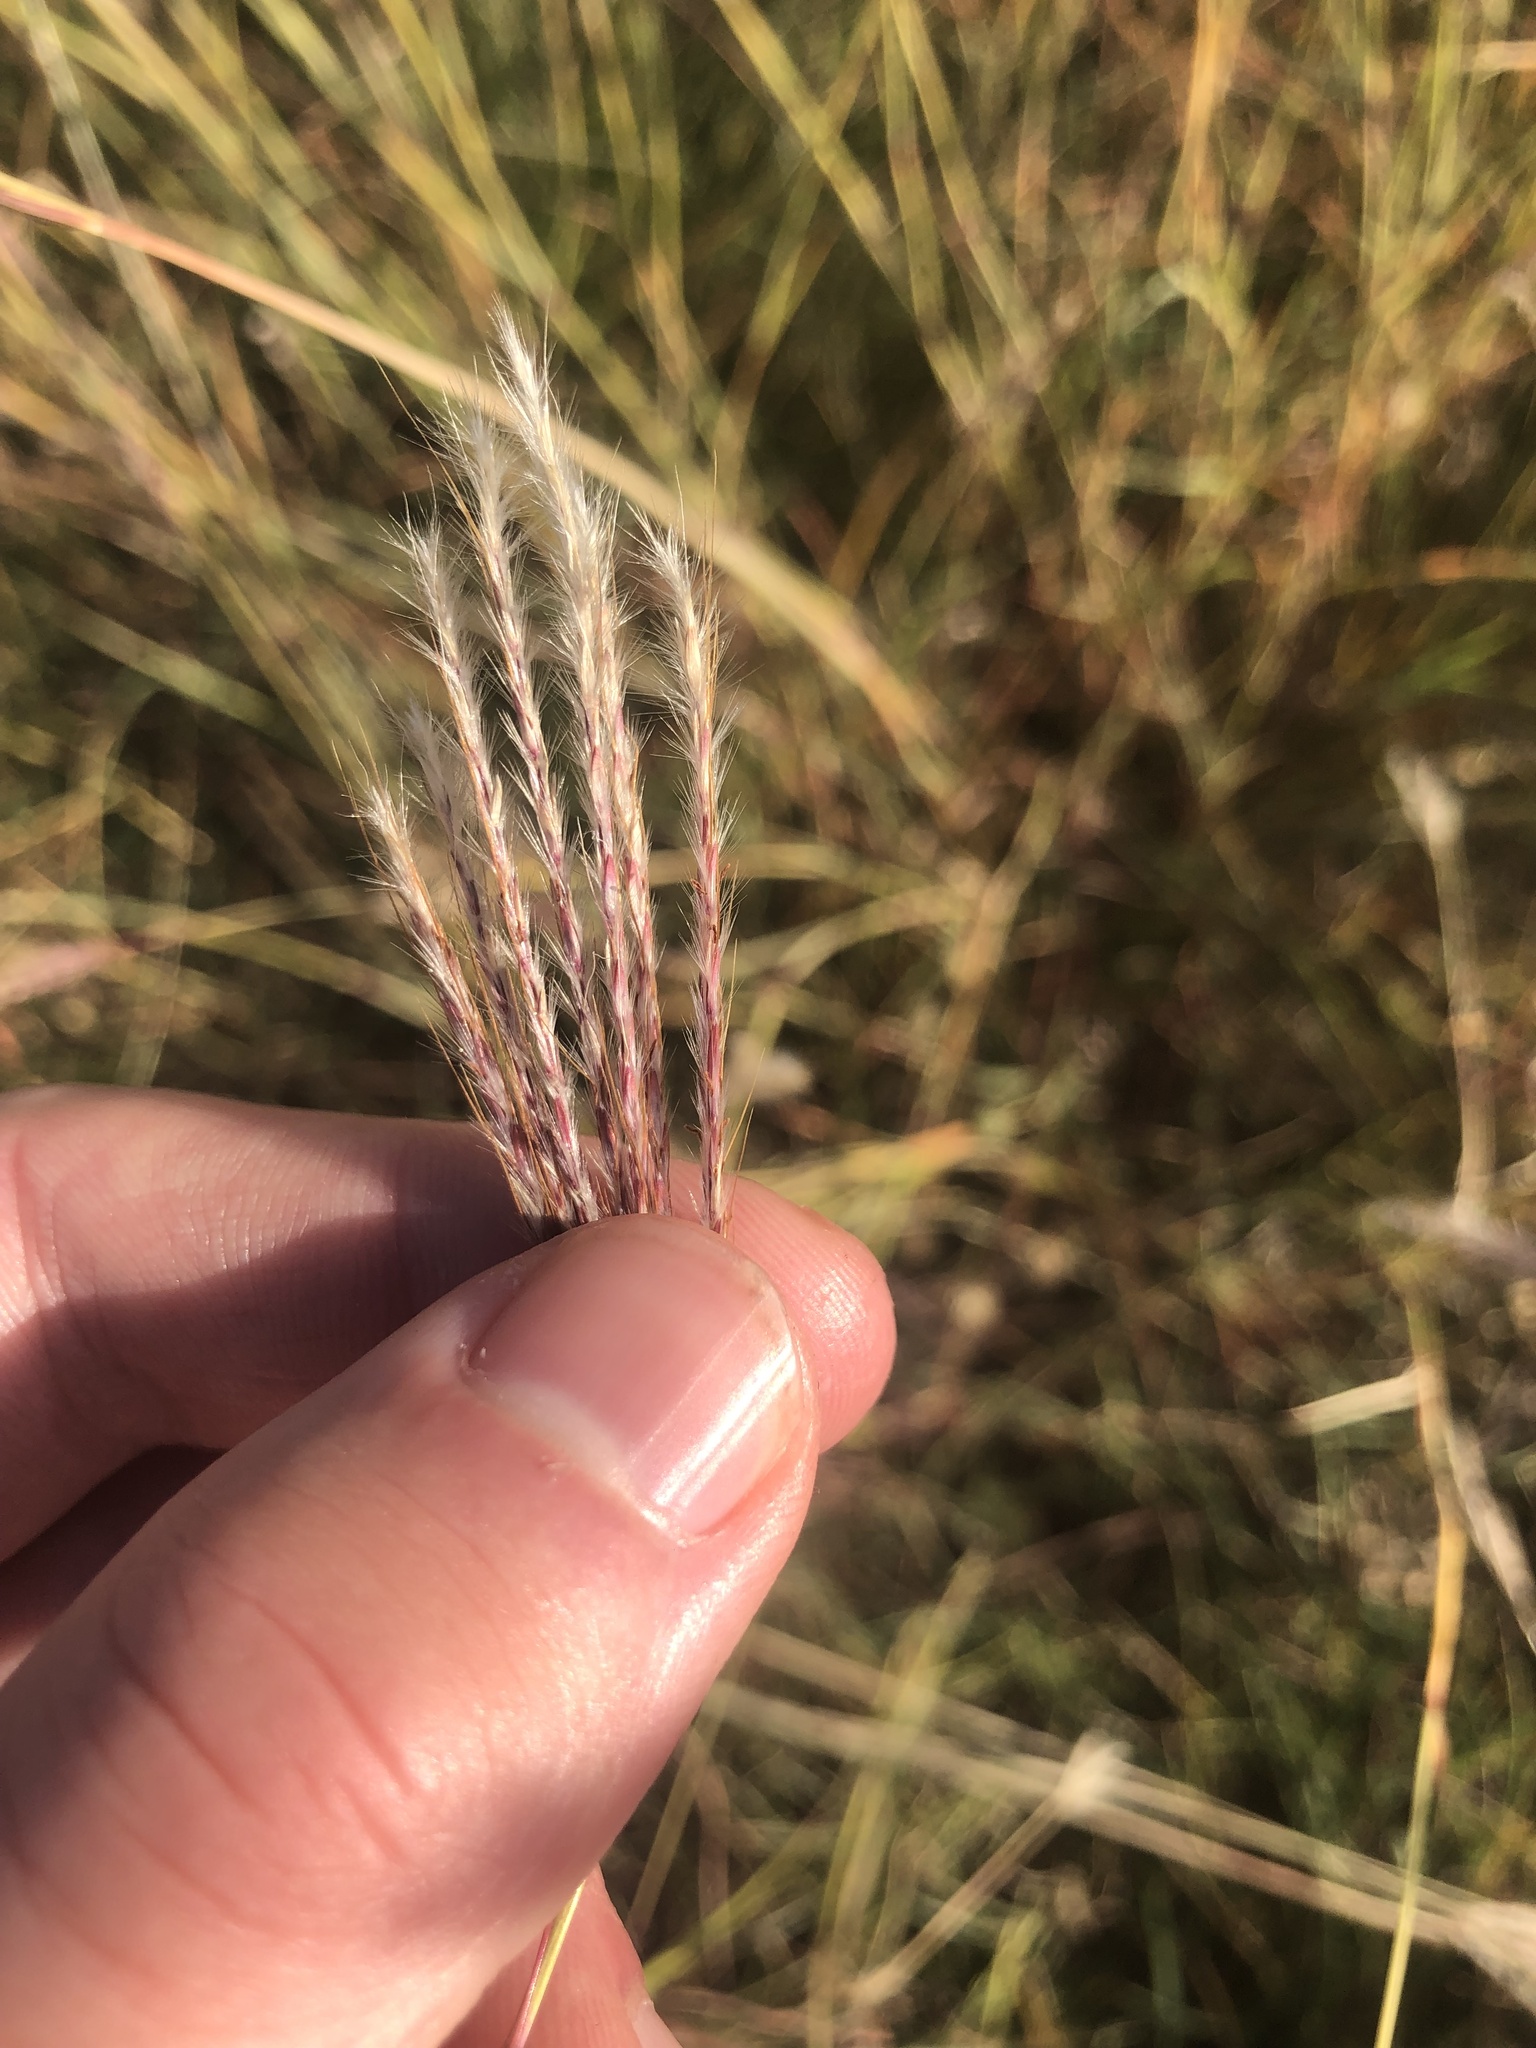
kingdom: Plantae
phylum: Tracheophyta
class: Liliopsida
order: Poales
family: Poaceae
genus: Bothriochloa
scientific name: Bothriochloa ischaemum
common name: Yellow bluestem
